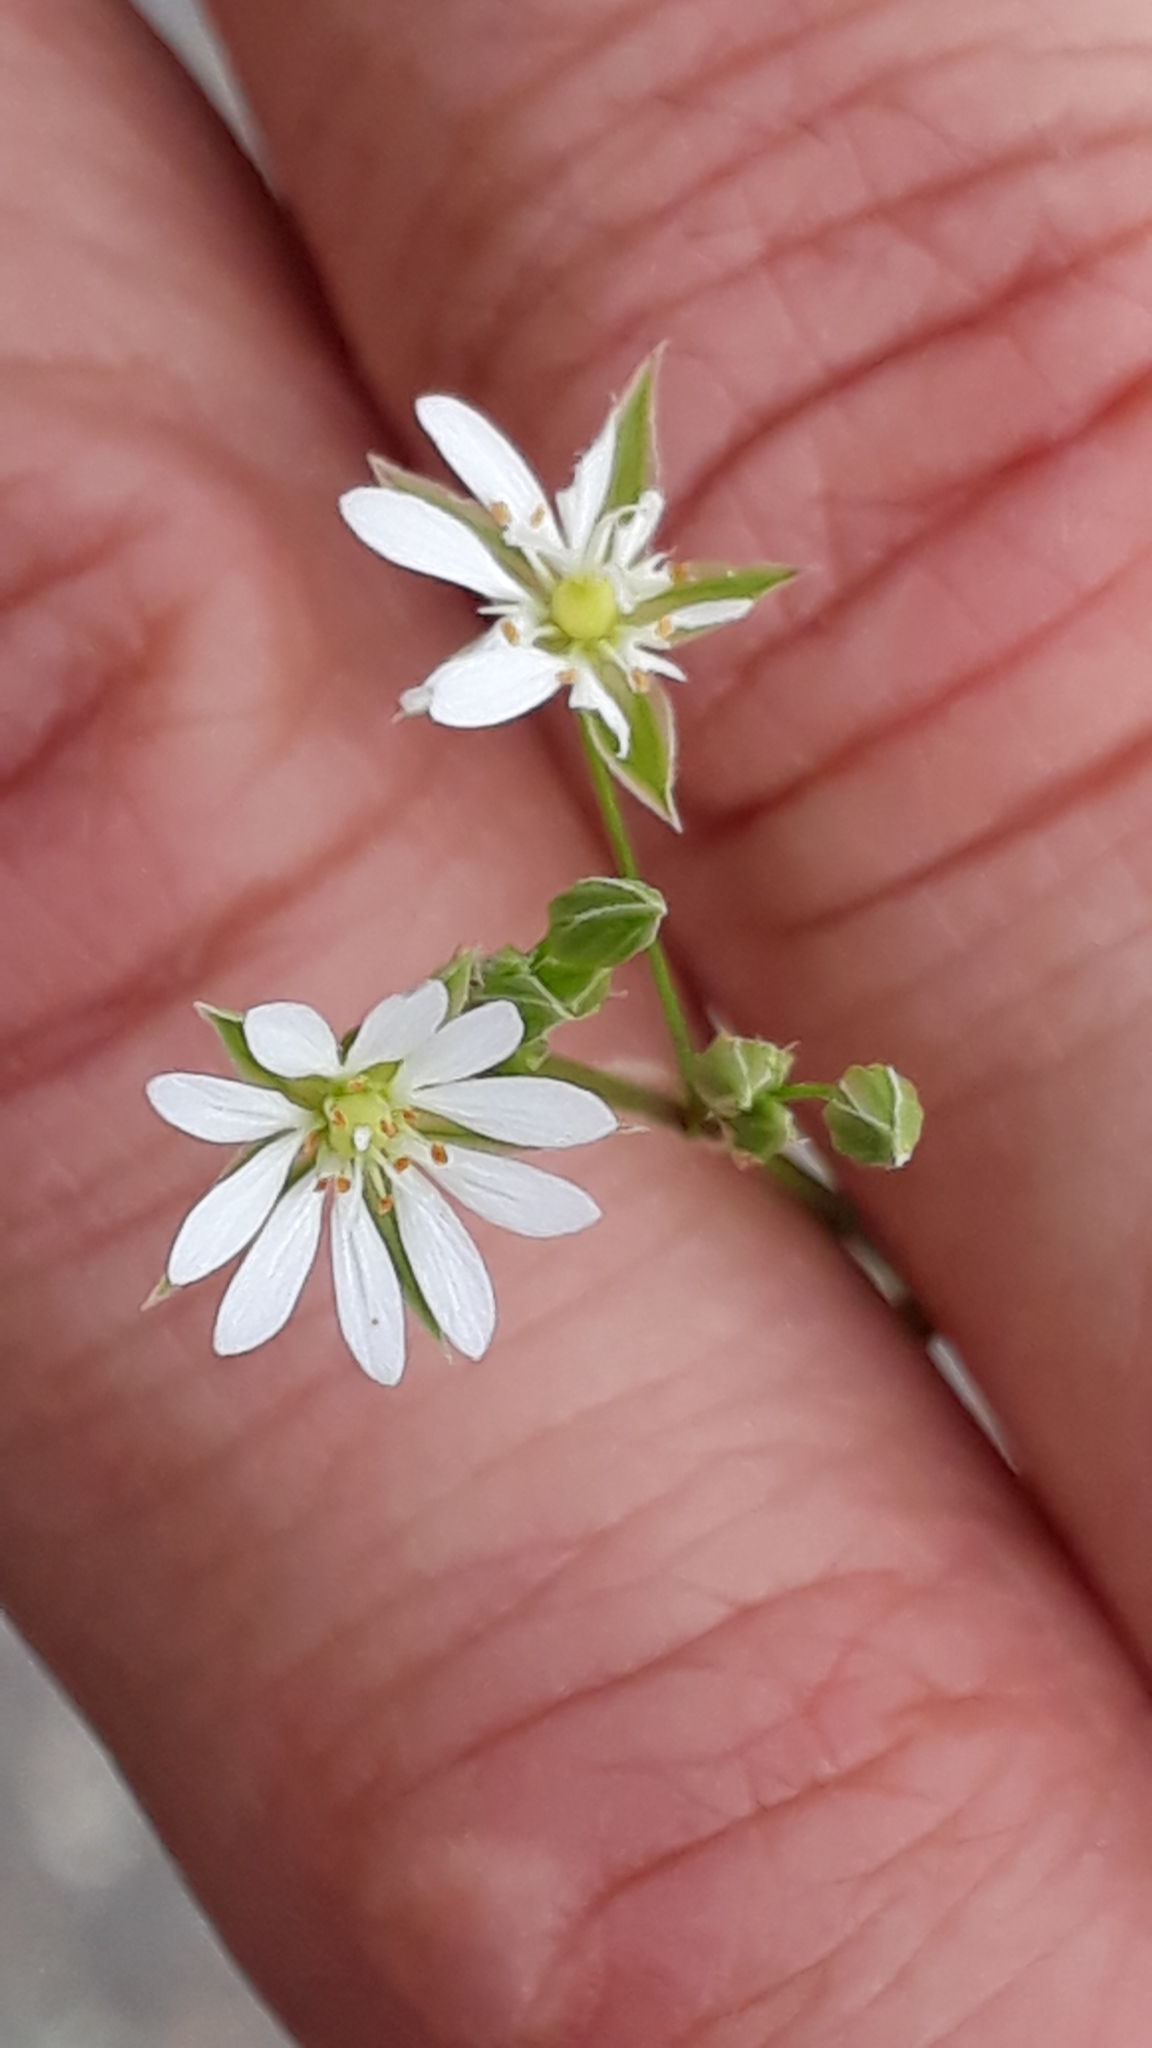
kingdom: Plantae
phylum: Tracheophyta
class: Magnoliopsida
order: Caryophyllales
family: Caryophyllaceae
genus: Stellaria
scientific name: Stellaria graminea
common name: Grass-like starwort
